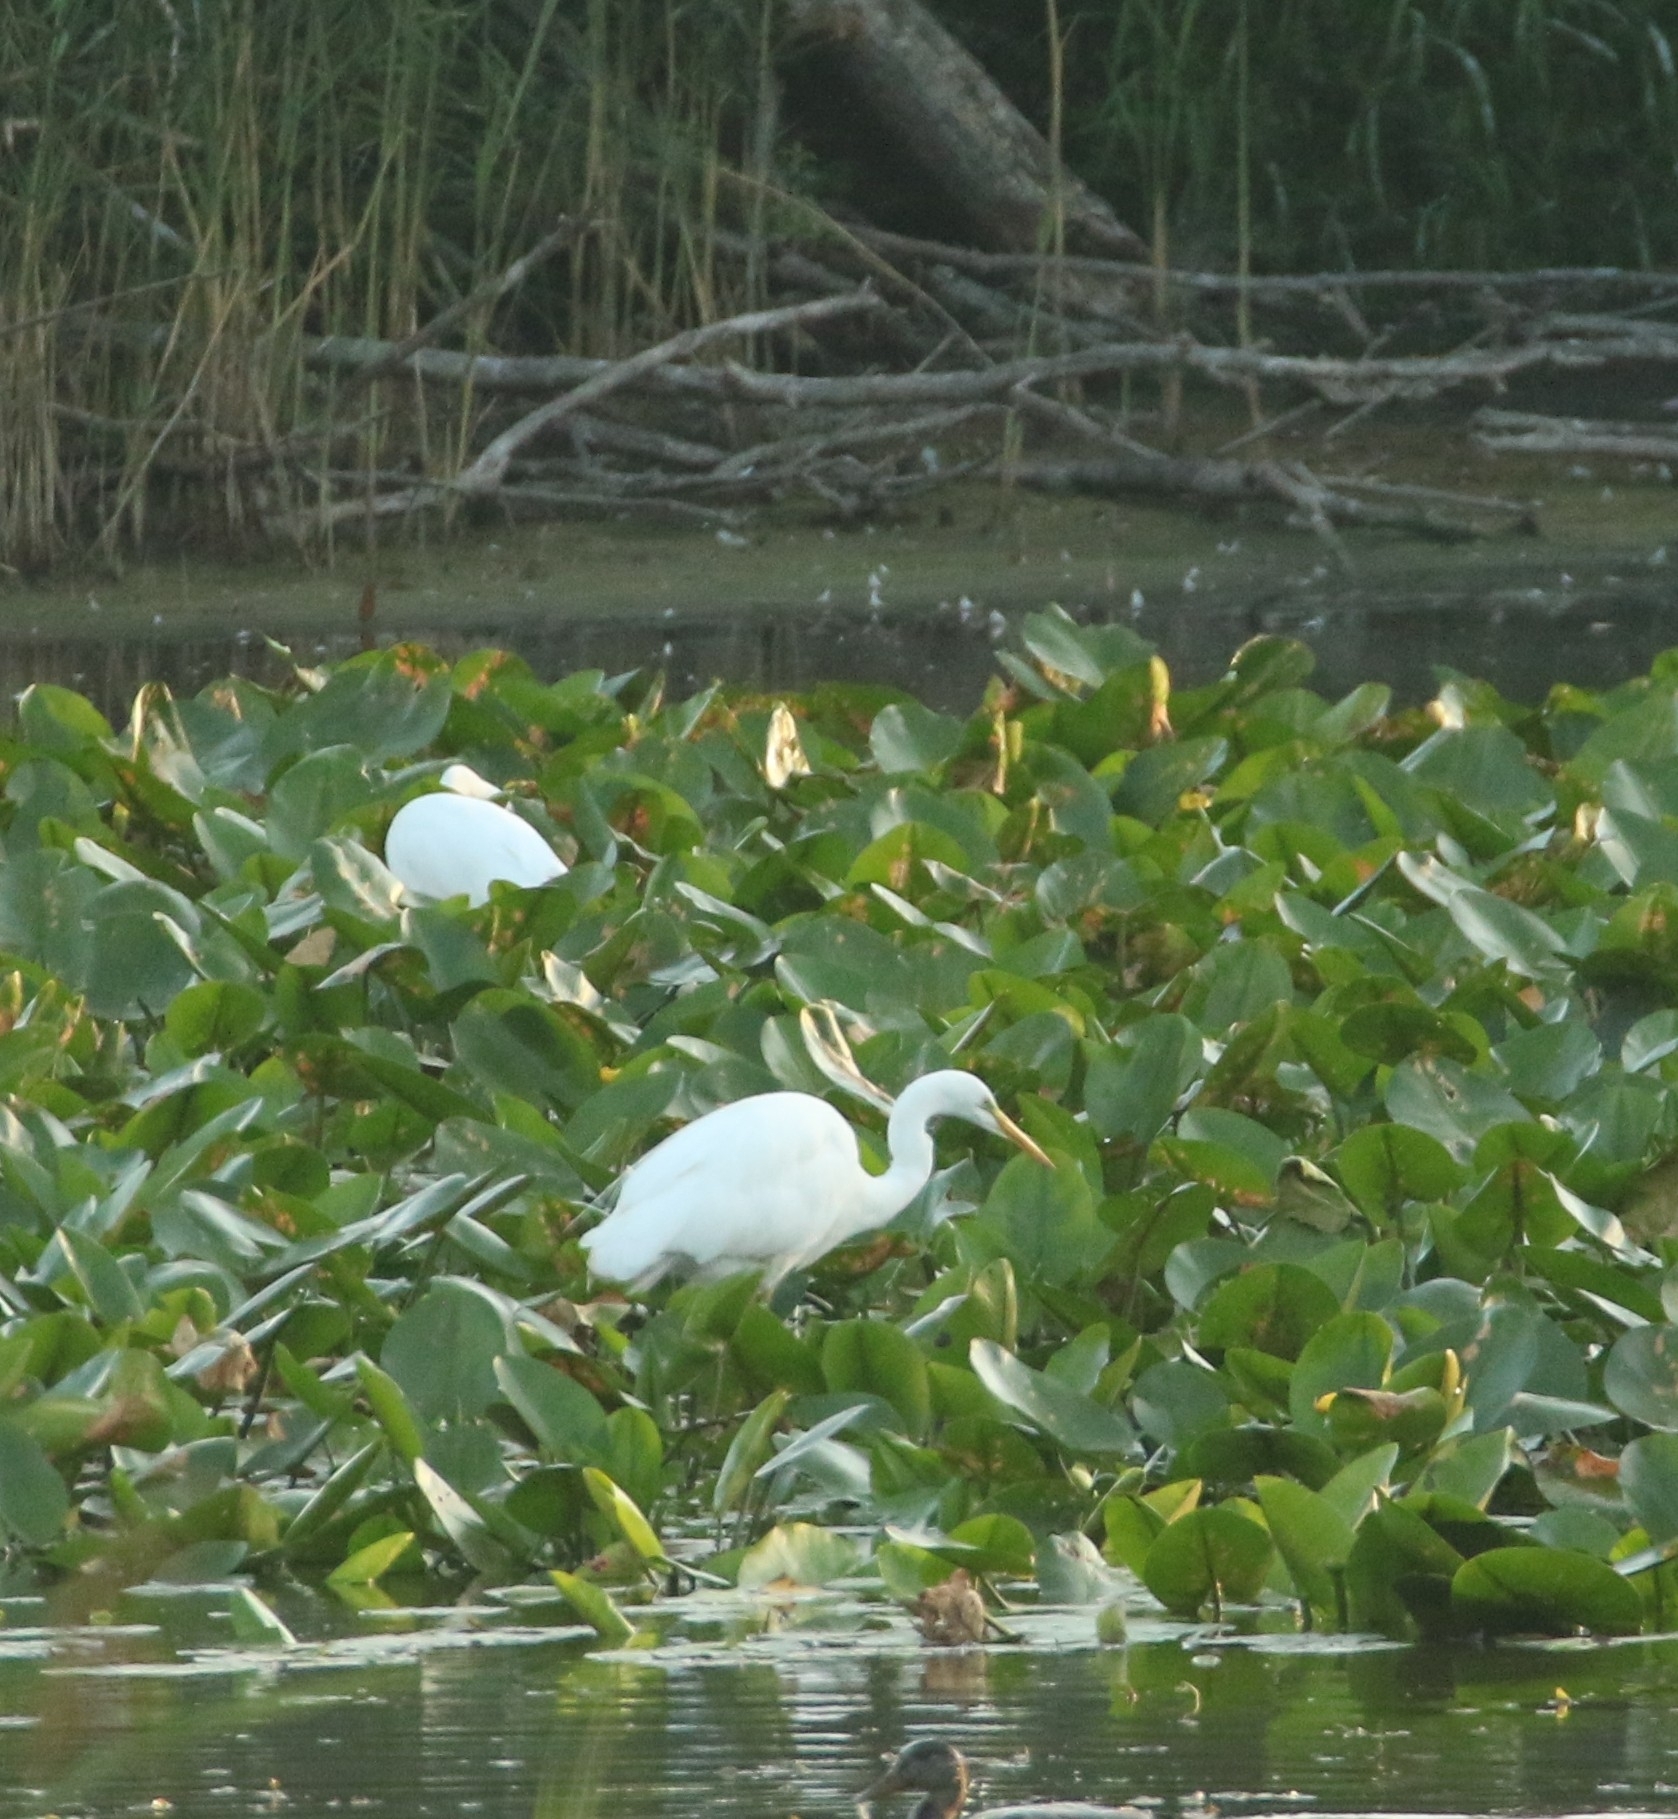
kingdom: Animalia
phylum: Chordata
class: Aves
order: Pelecaniformes
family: Ardeidae
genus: Ardea
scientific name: Ardea alba
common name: Great egret
